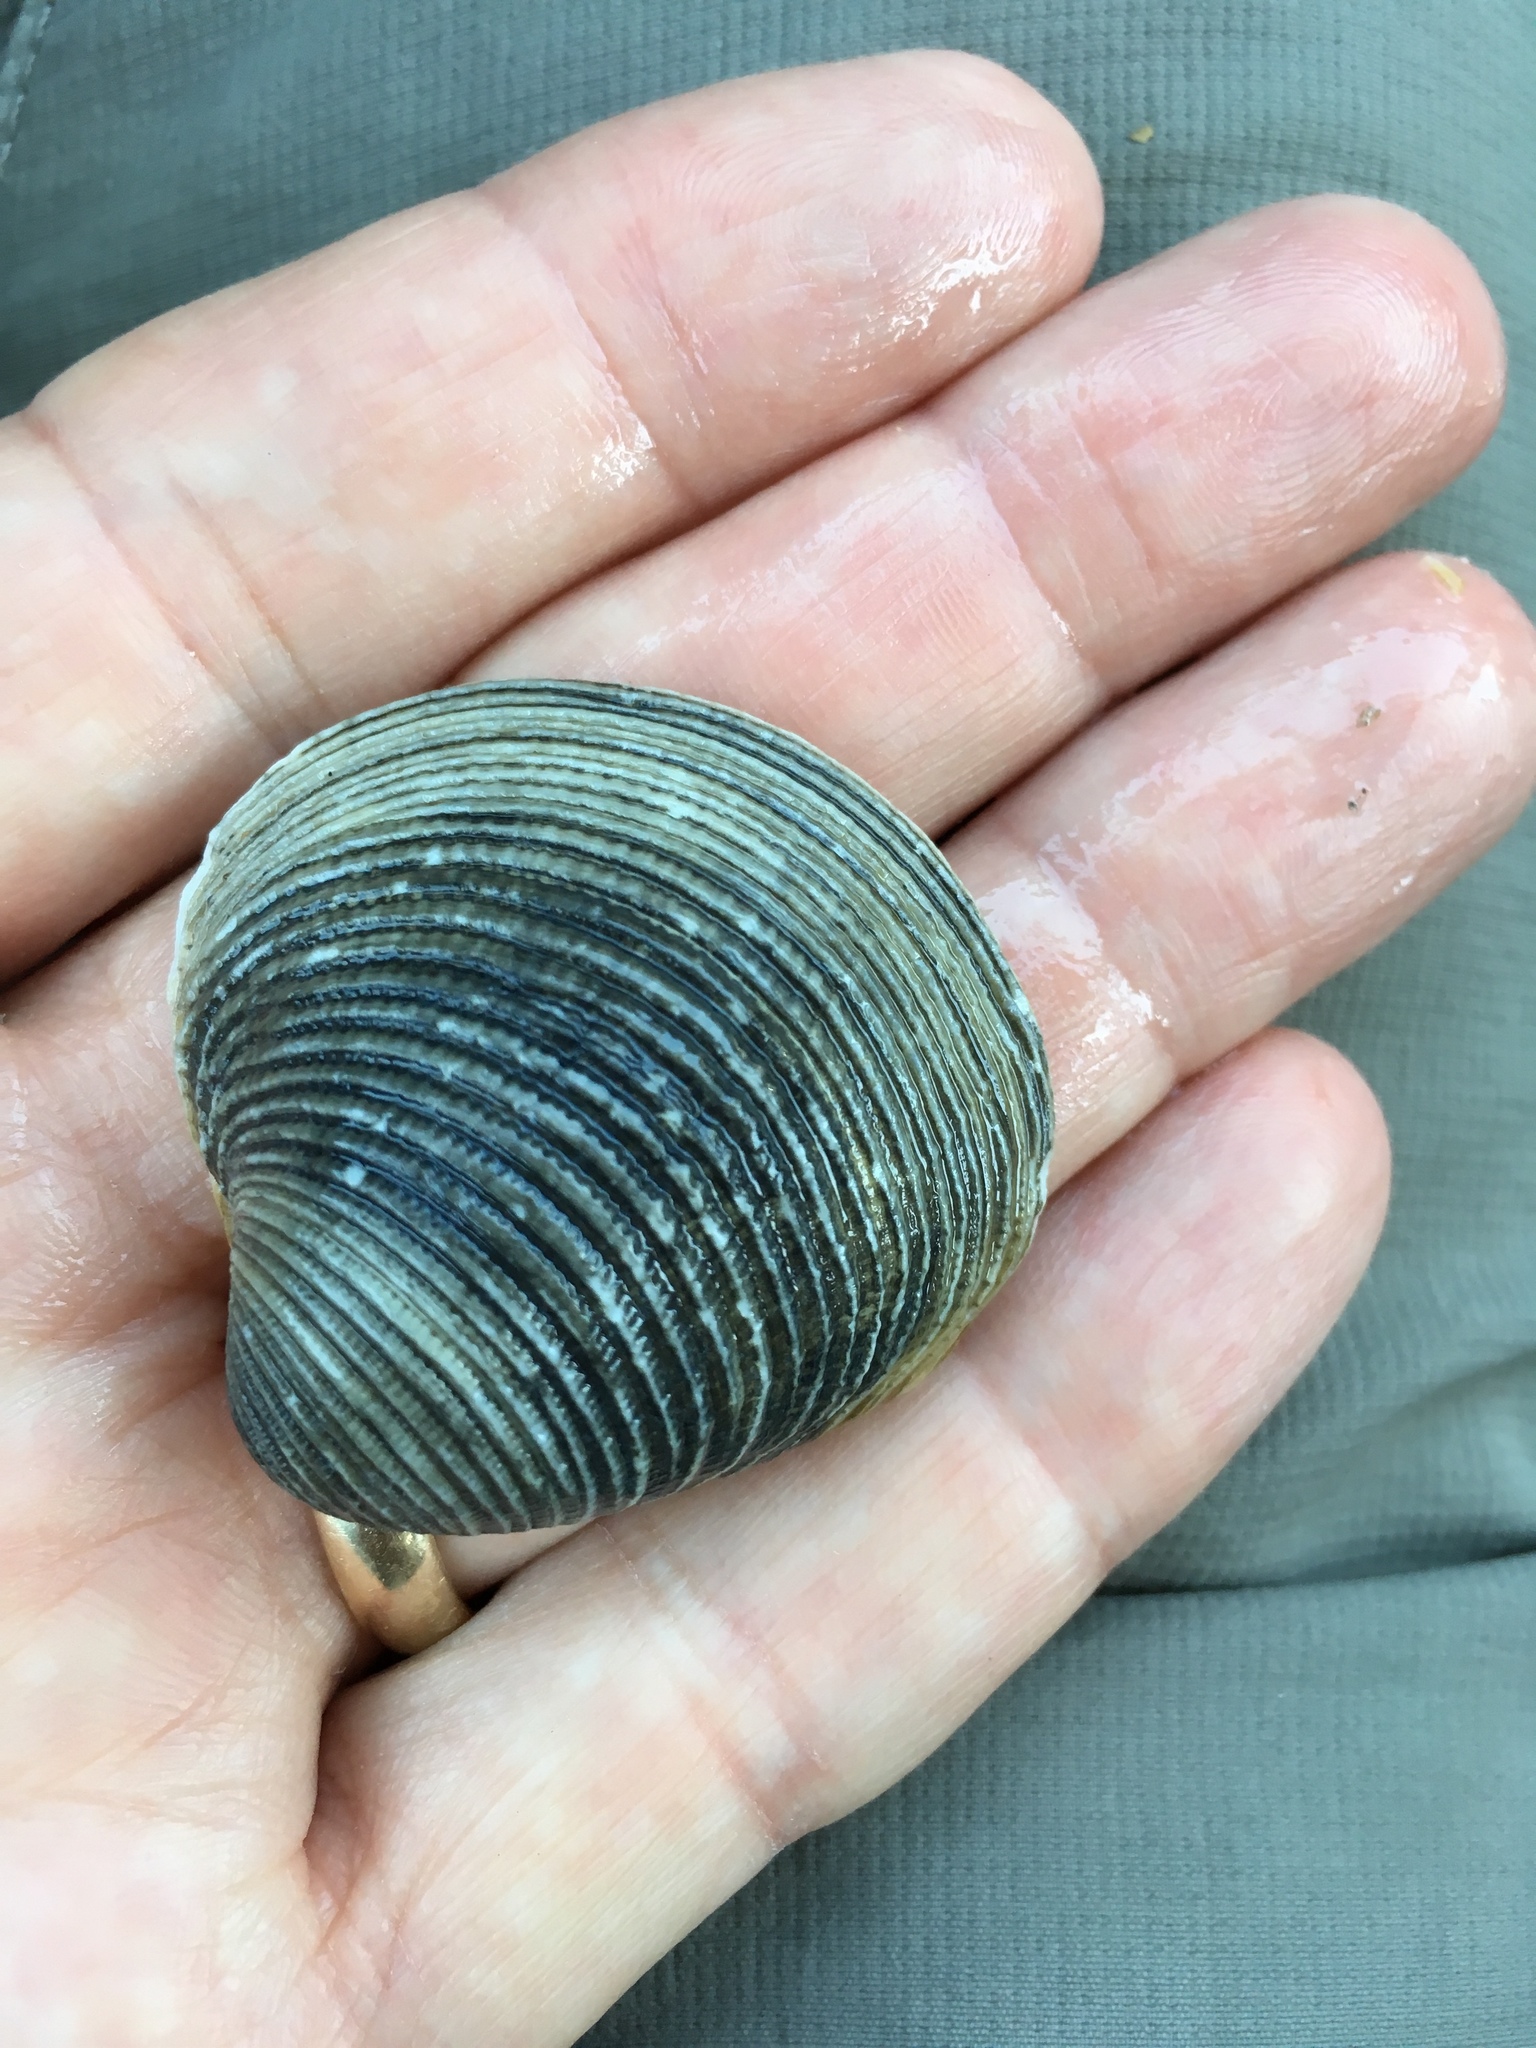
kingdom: Animalia
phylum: Mollusca
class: Bivalvia
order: Venerida
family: Veneridae
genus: Chionopsis
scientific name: Chionopsis intapurpurea
